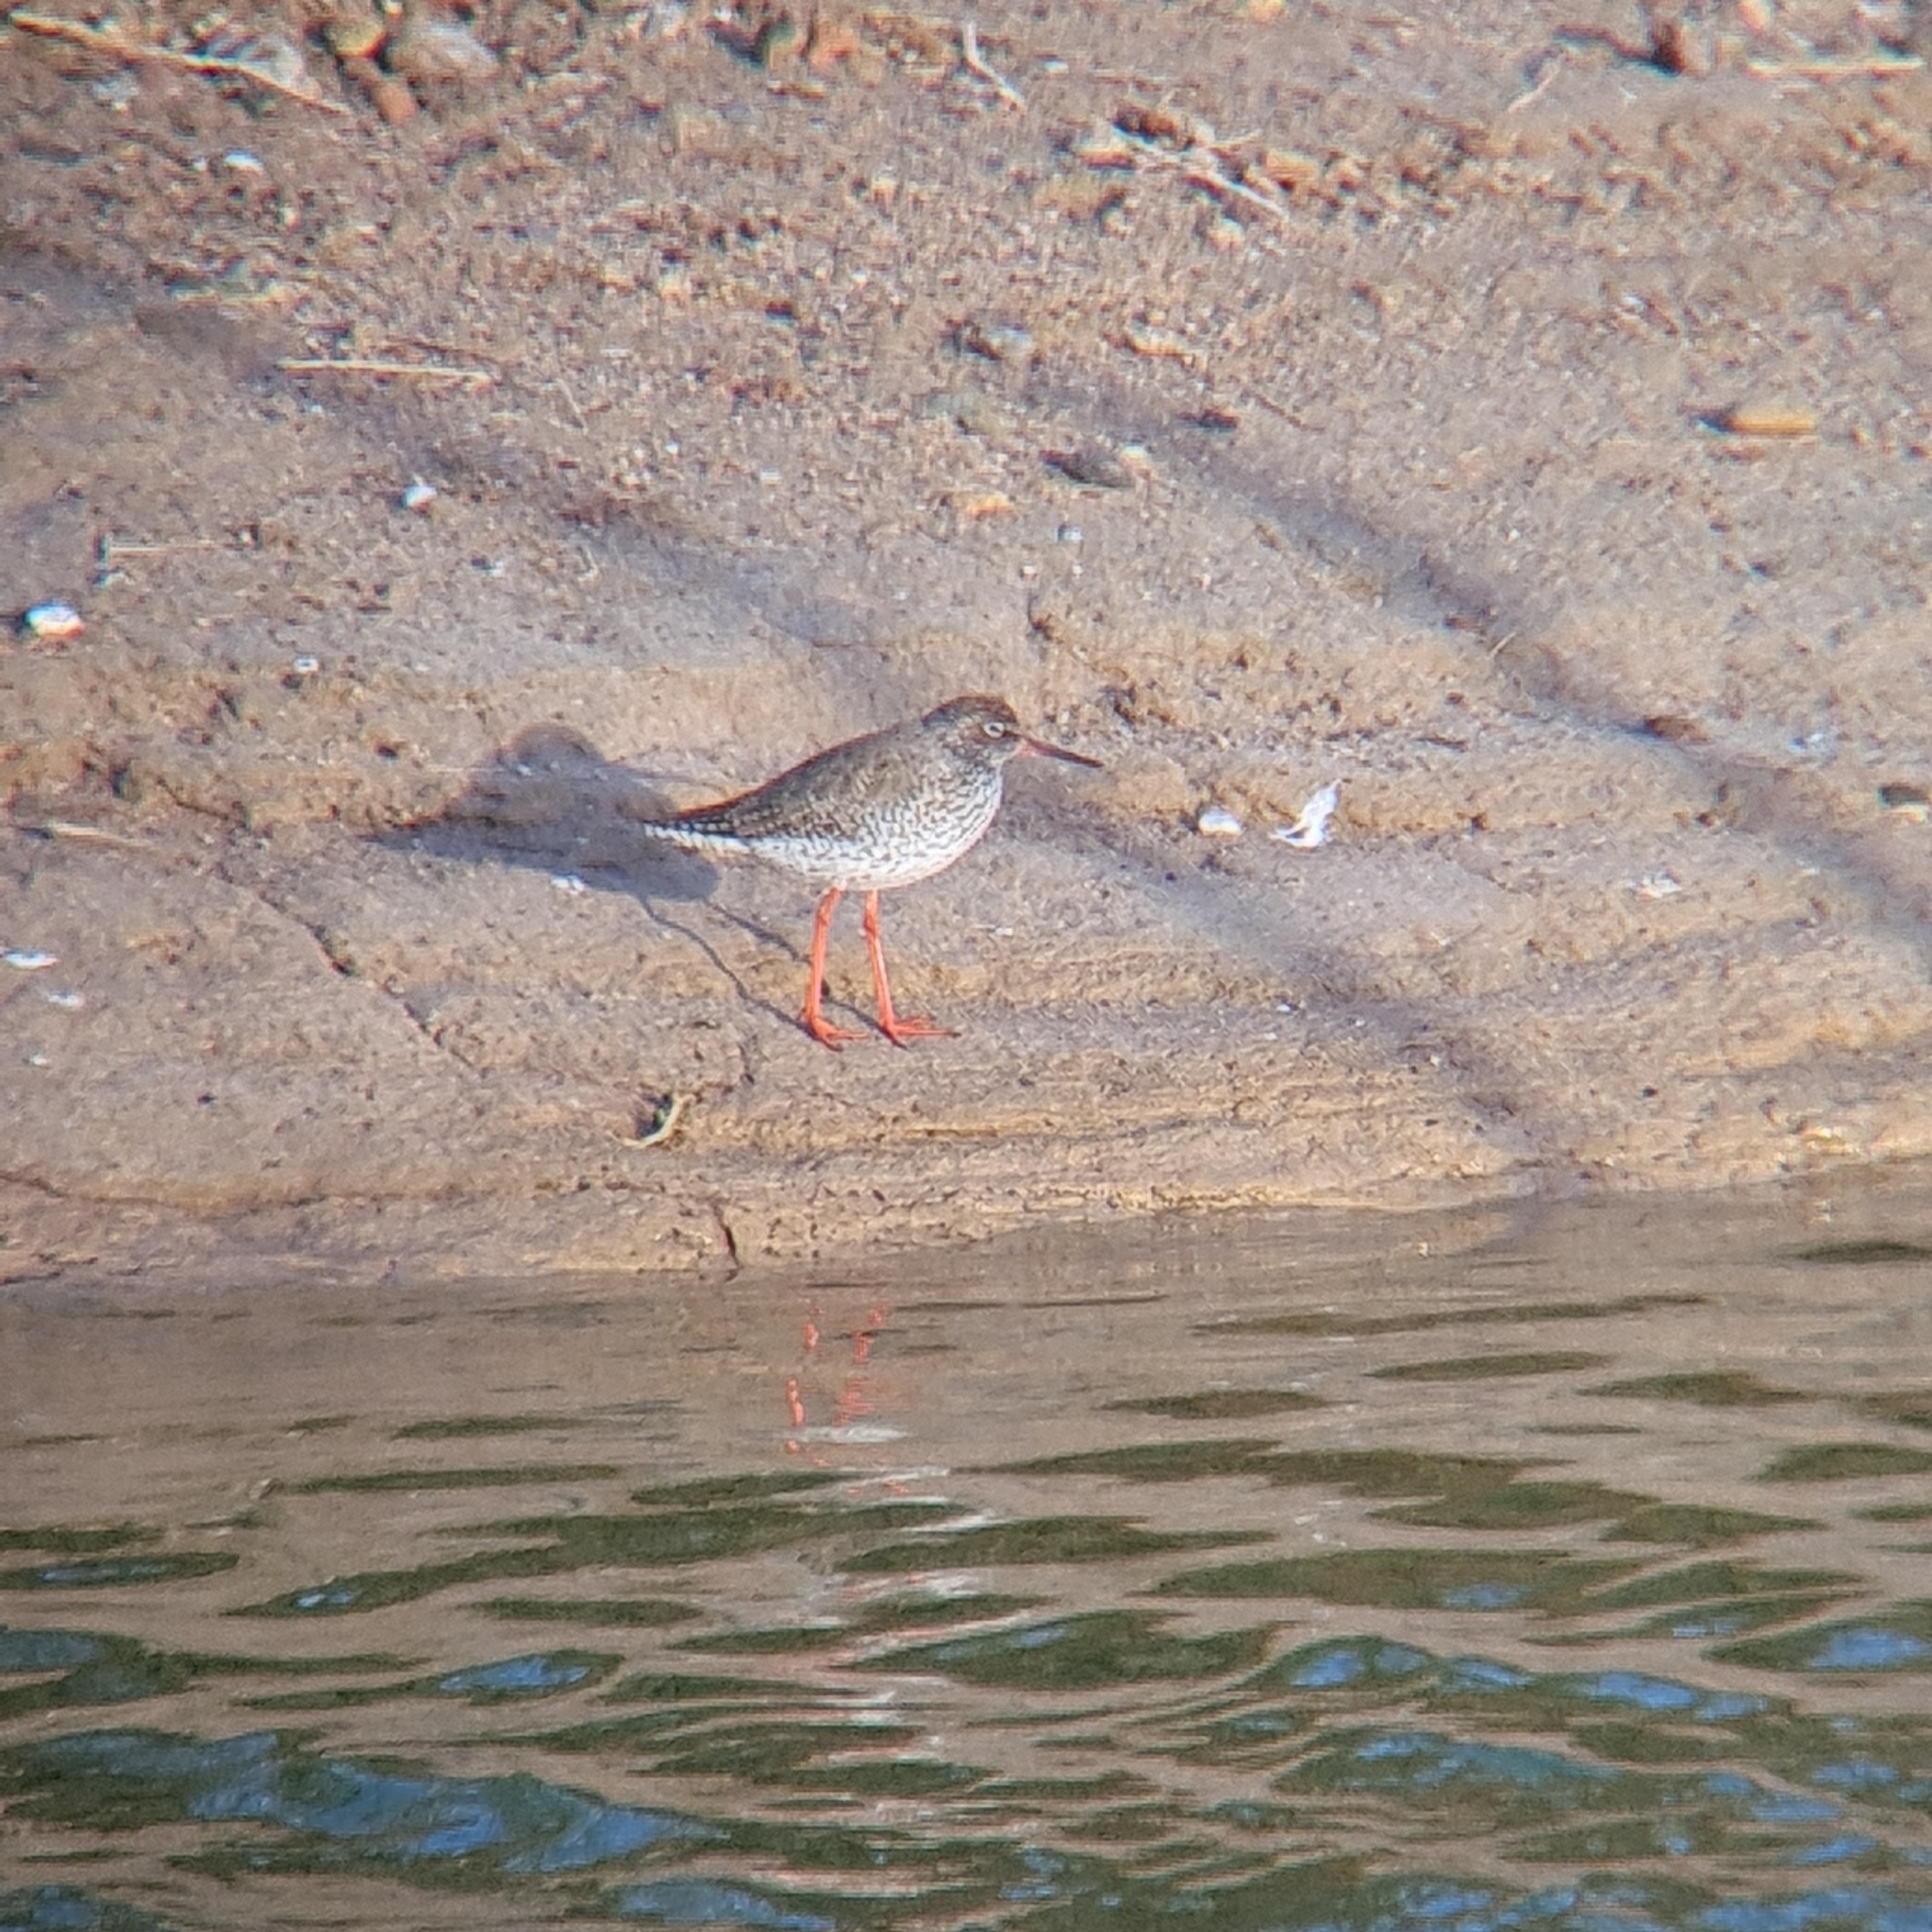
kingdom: Animalia
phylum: Chordata
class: Aves
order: Charadriiformes
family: Scolopacidae
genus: Tringa
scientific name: Tringa totanus
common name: Common redshank
